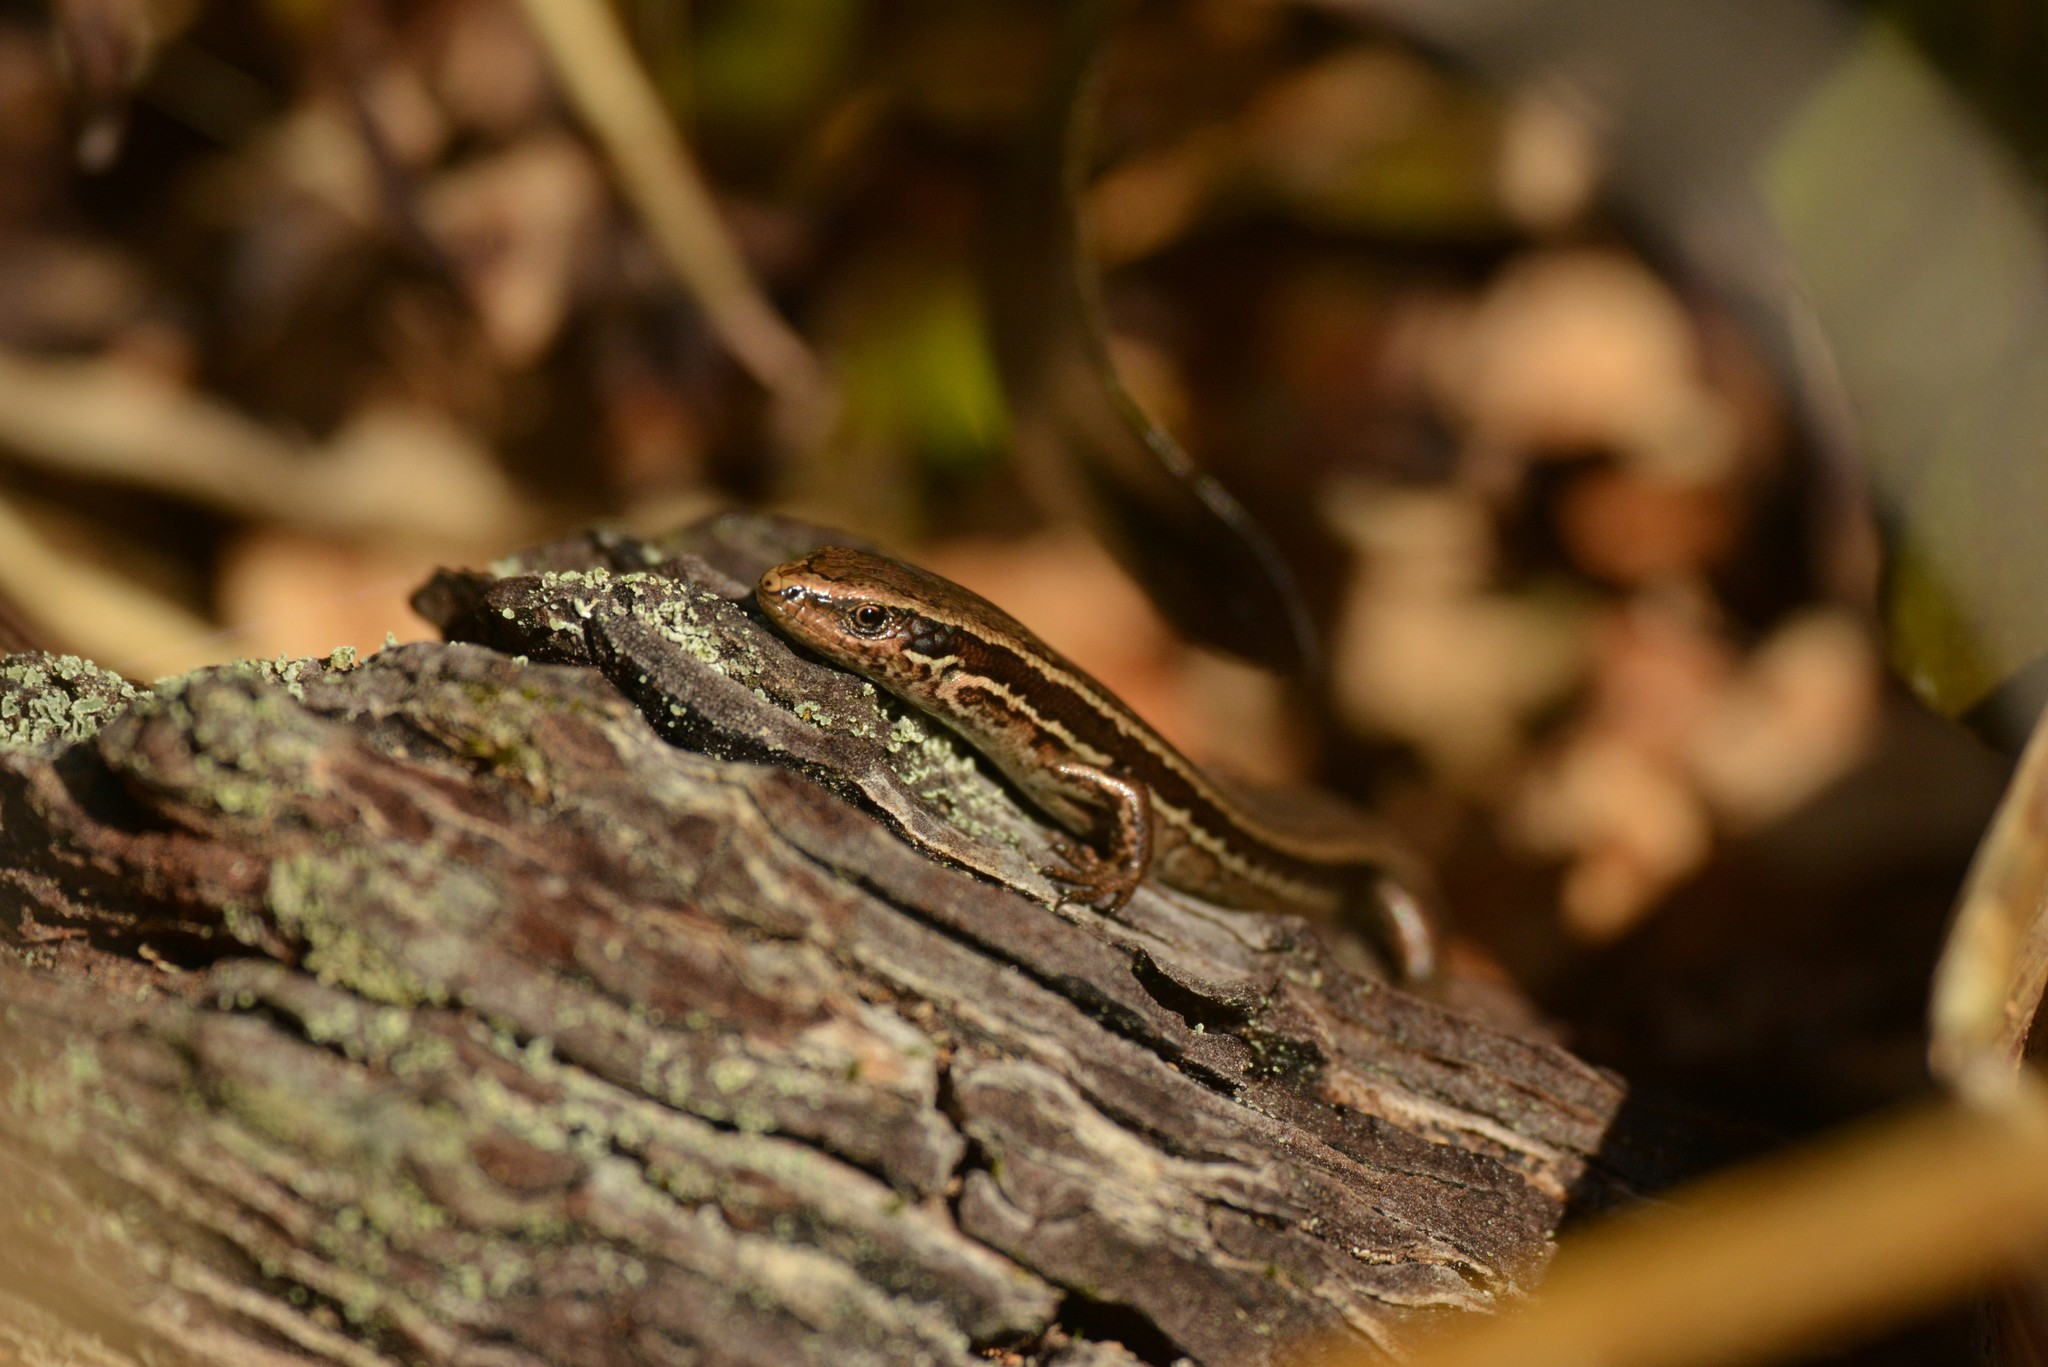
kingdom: Animalia
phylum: Chordata
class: Squamata
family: Scincidae
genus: Oligosoma
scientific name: Oligosoma polychroma
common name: Common new zealand skink
